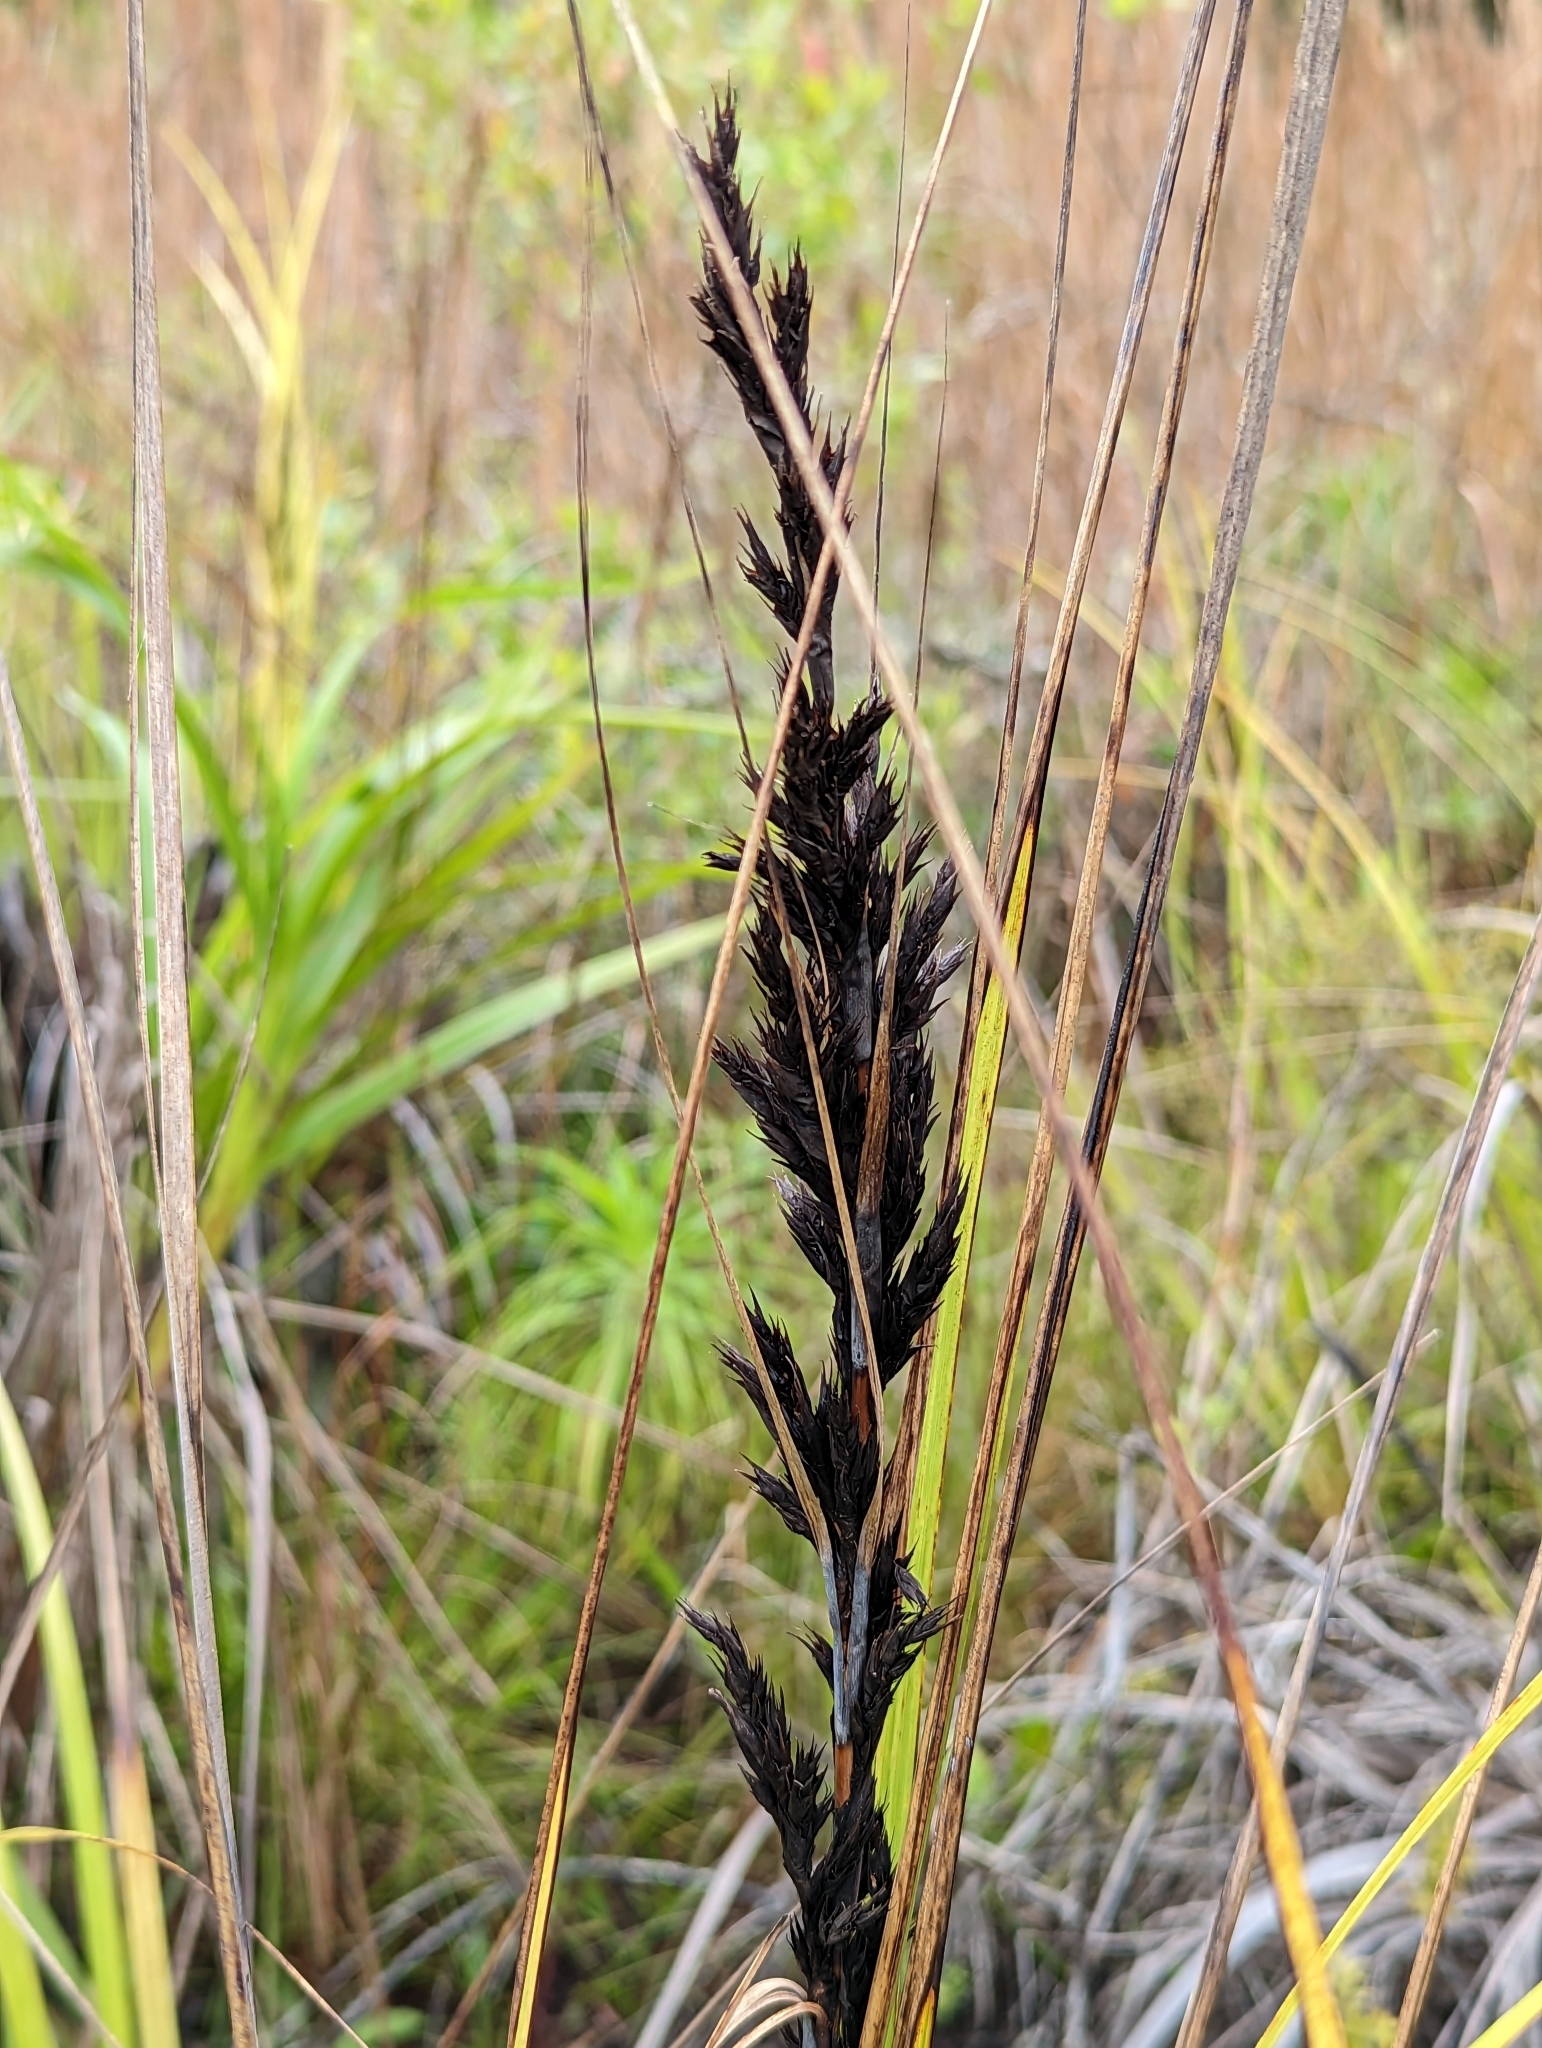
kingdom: Plantae
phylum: Tracheophyta
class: Liliopsida
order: Poales
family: Cyperaceae
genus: Gahnia
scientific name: Gahnia beecheyi
